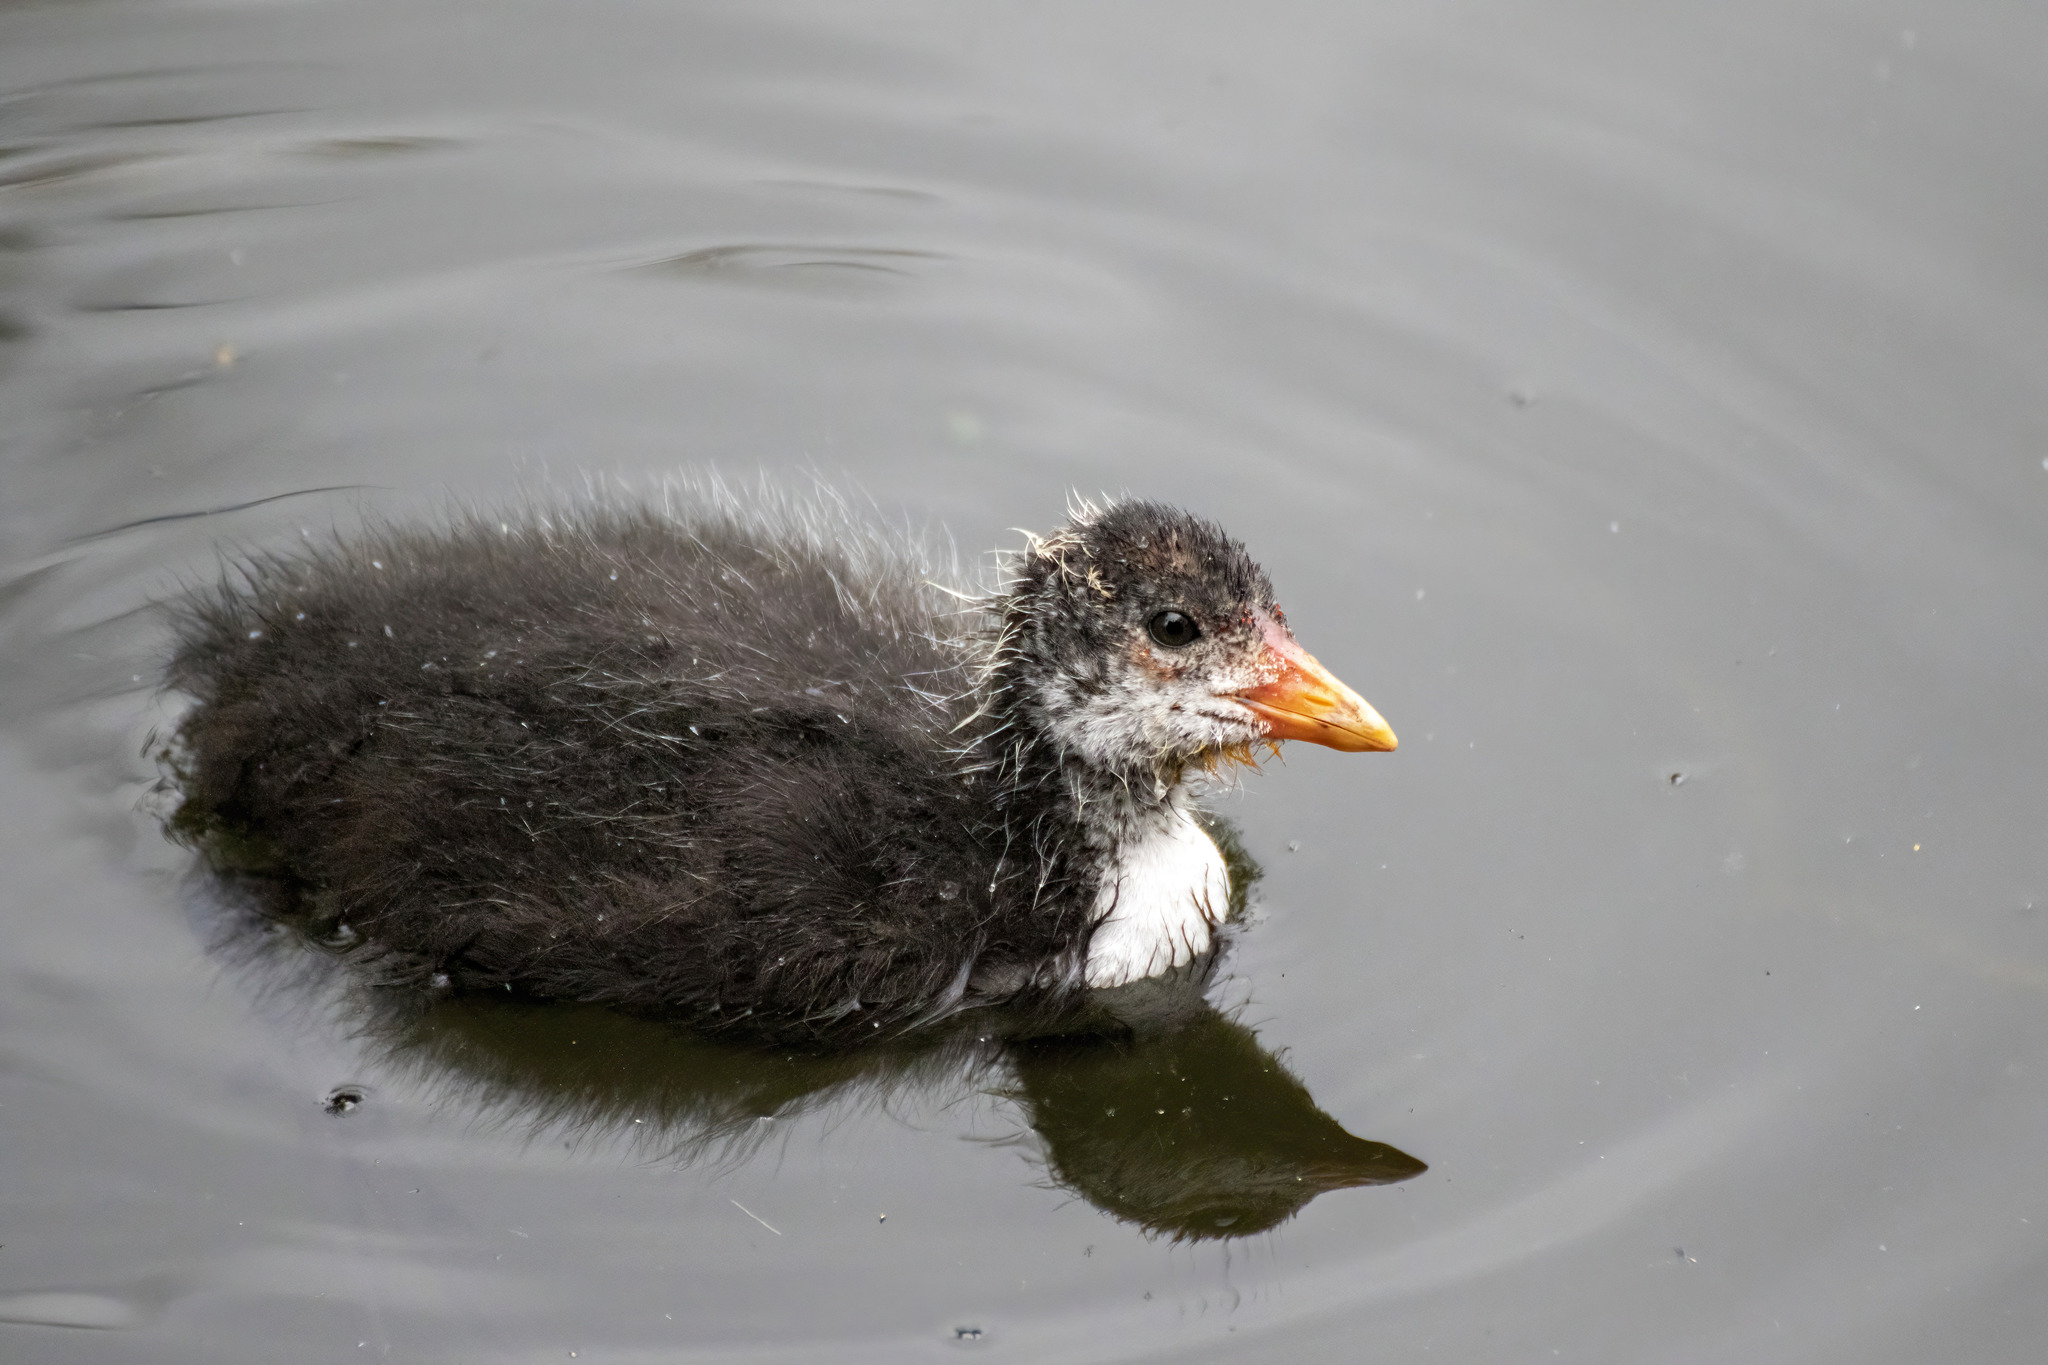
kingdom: Animalia
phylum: Chordata
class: Aves
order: Gruiformes
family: Rallidae
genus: Fulica
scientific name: Fulica atra
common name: Eurasian coot
